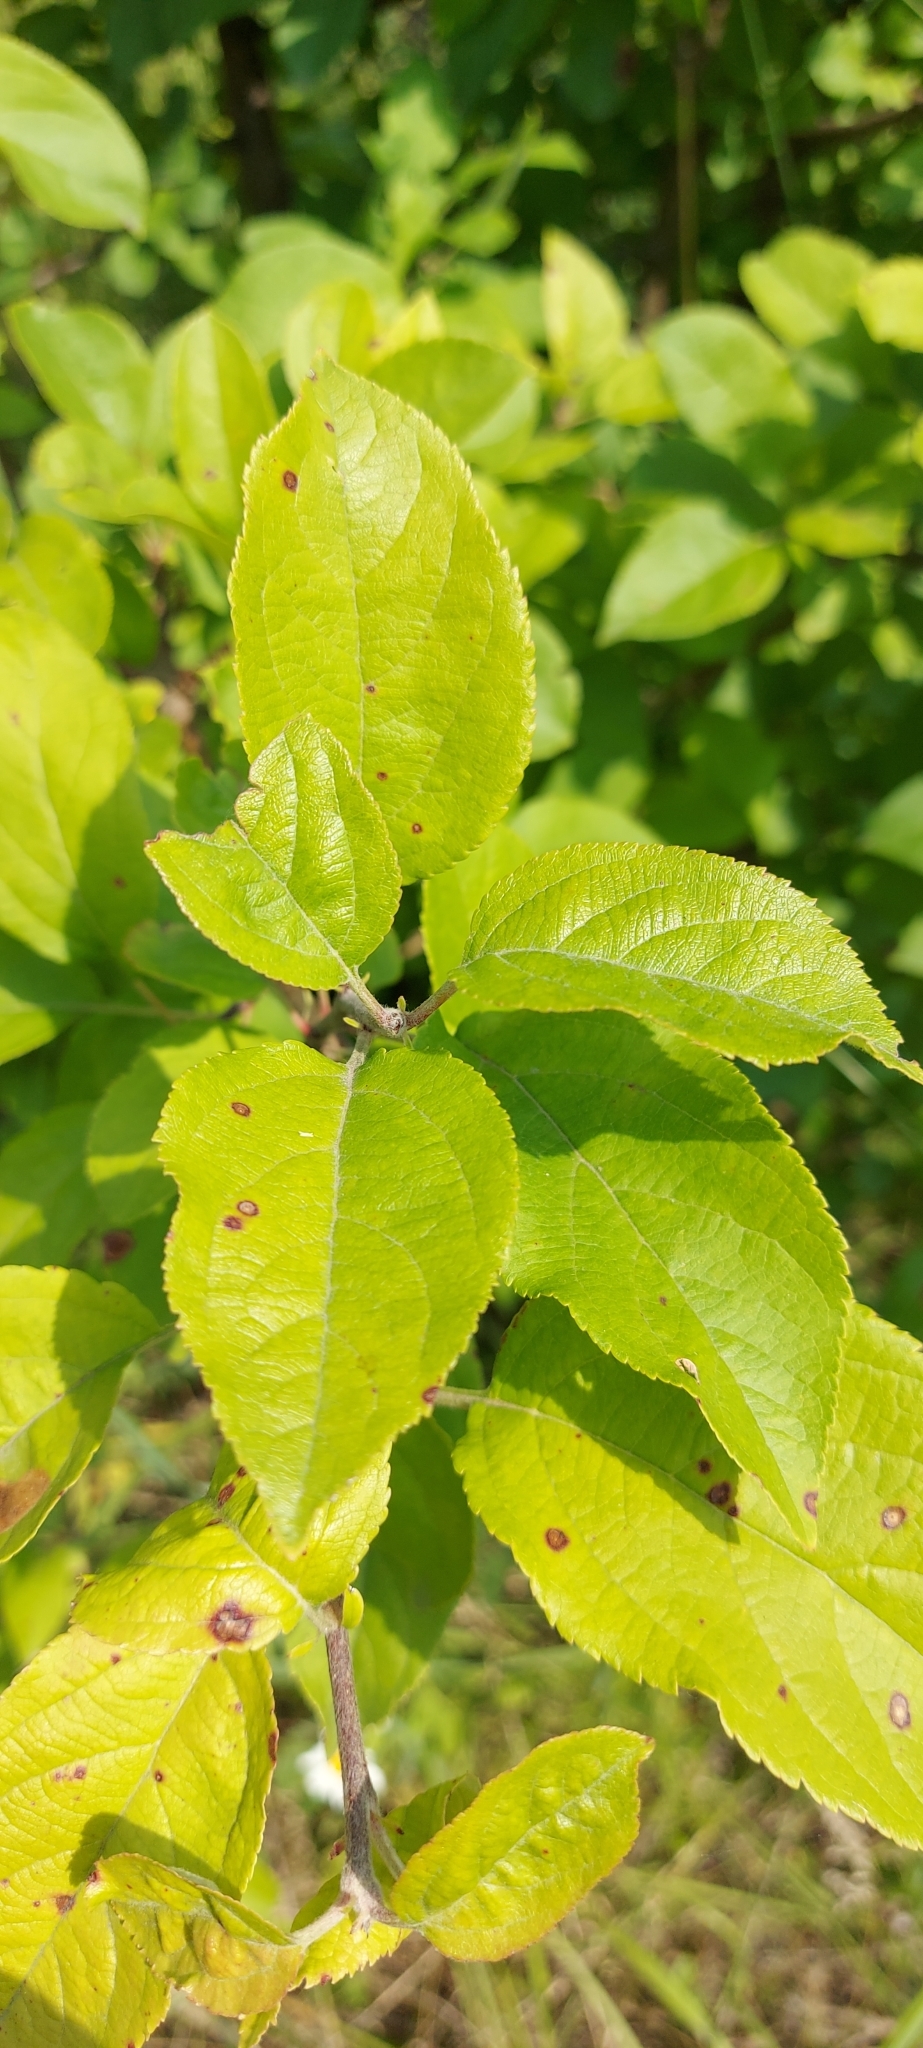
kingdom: Plantae
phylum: Tracheophyta
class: Magnoliopsida
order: Rosales
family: Rosaceae
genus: Malus
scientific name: Malus domestica
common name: Apple
